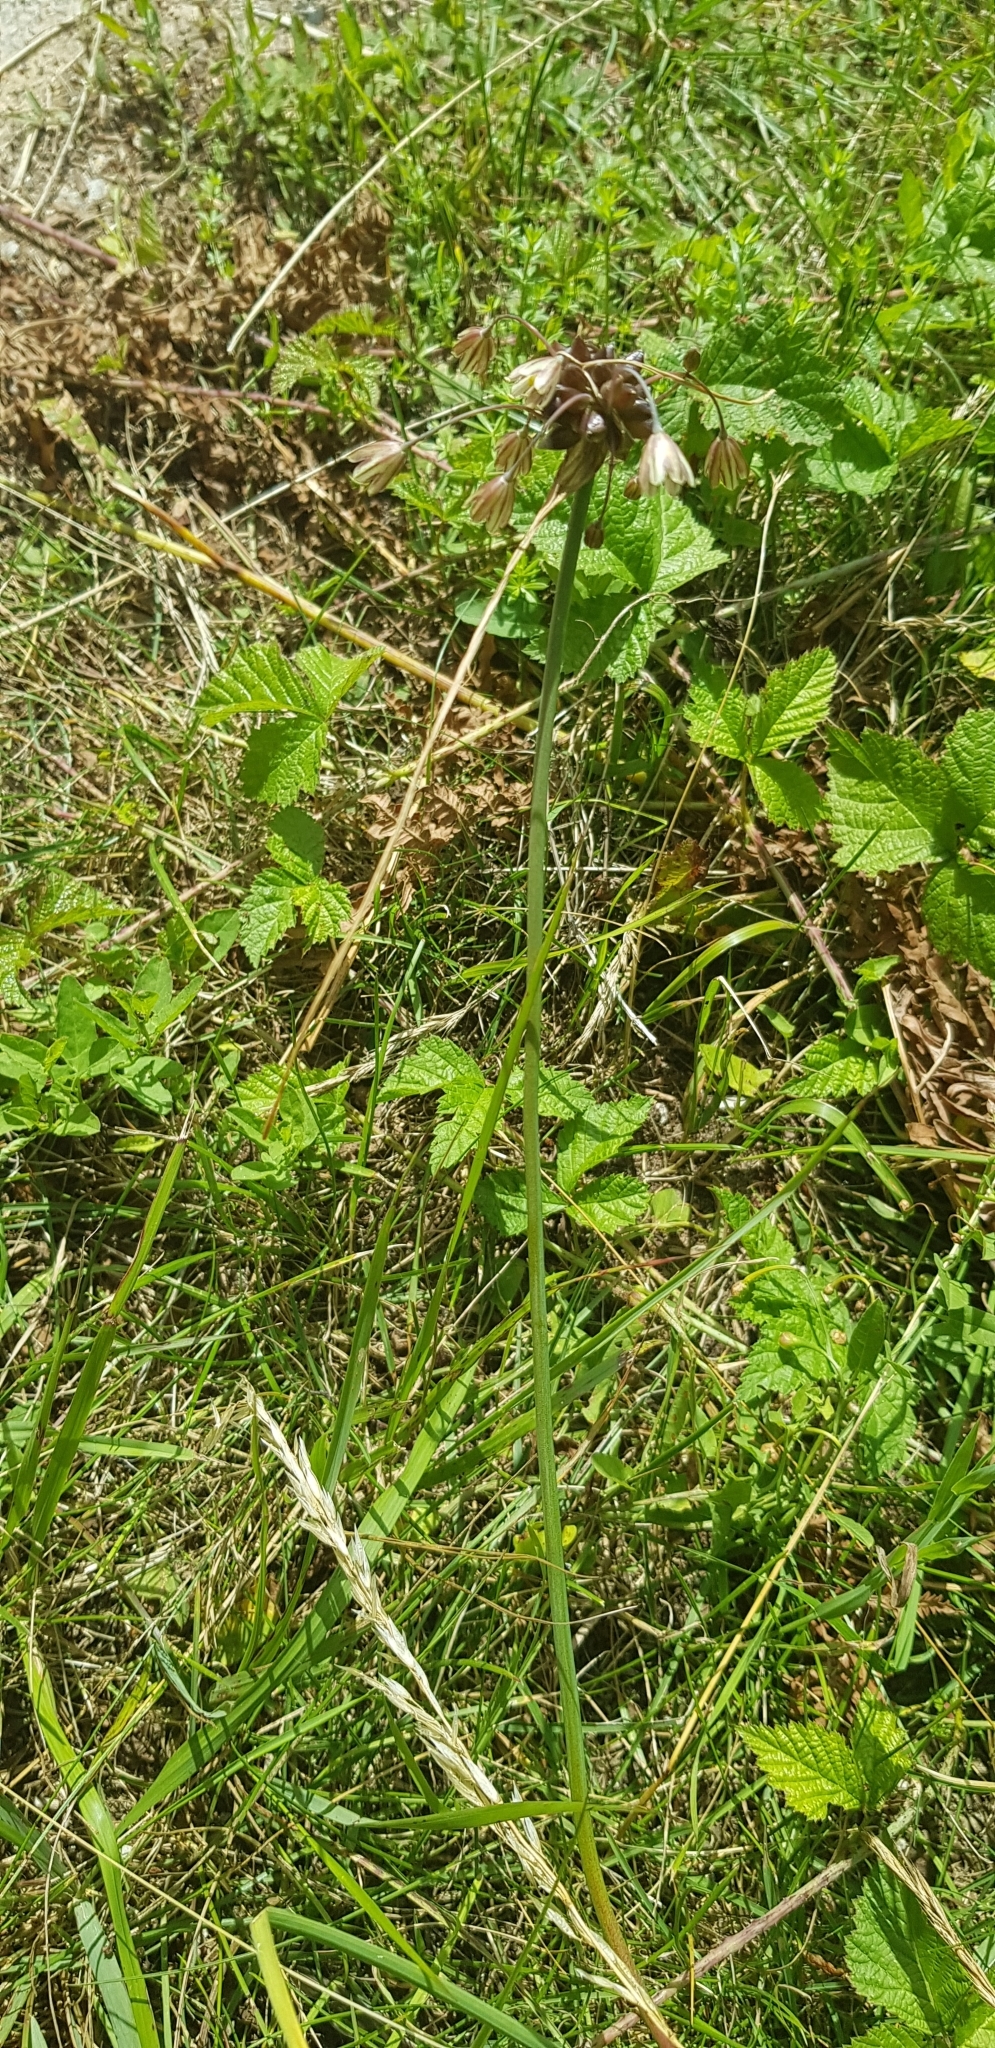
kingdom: Plantae
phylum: Tracheophyta
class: Liliopsida
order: Asparagales
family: Amaryllidaceae
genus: Allium
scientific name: Allium oleraceum
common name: Field garlic
